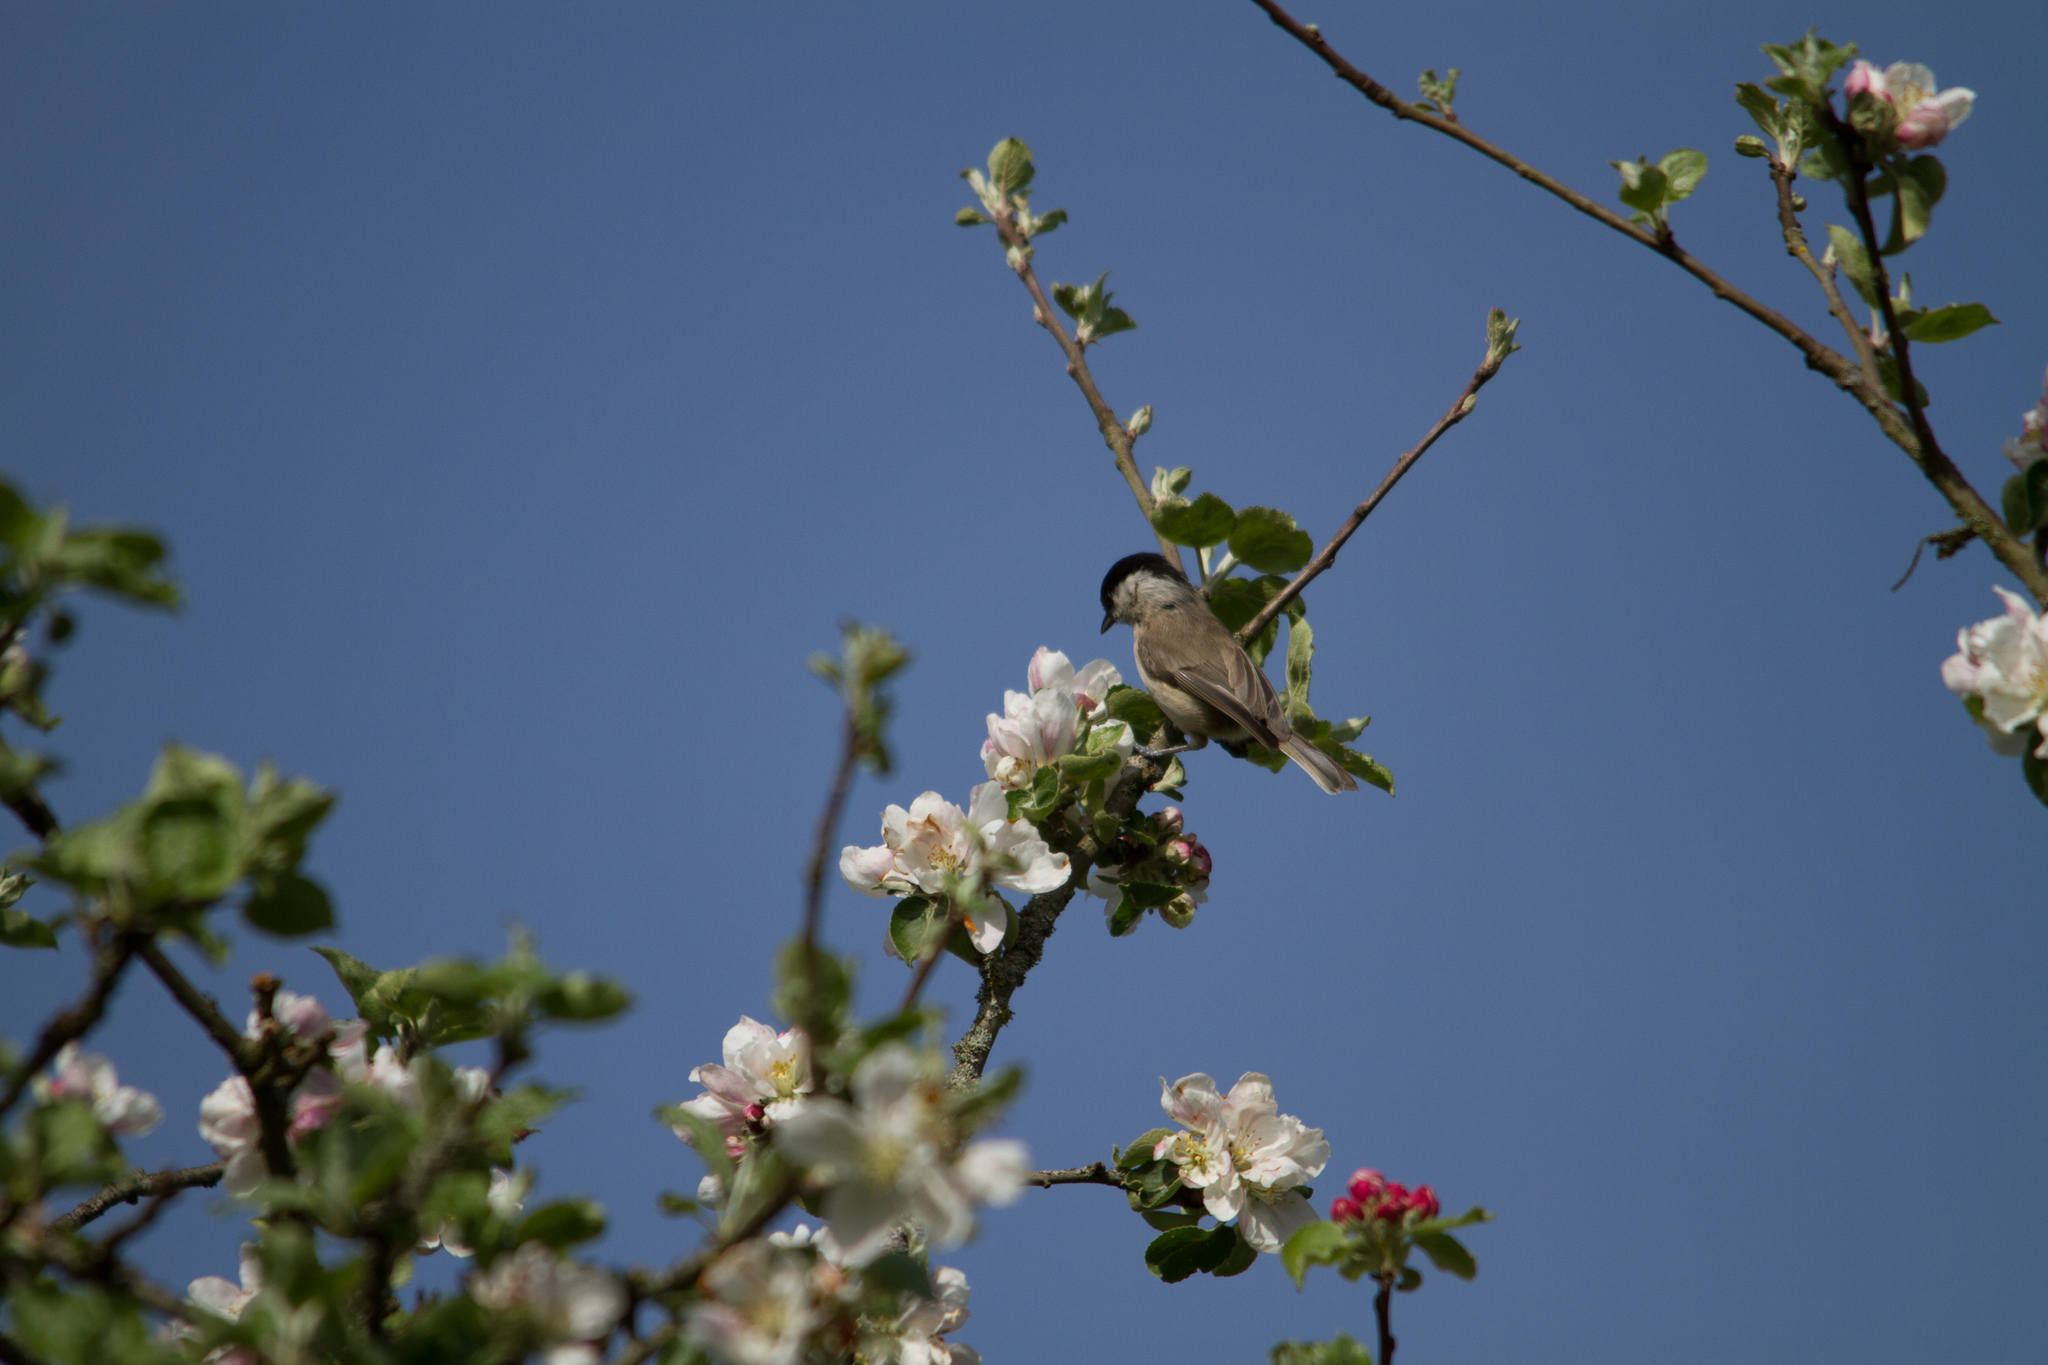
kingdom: Animalia
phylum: Chordata
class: Aves
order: Passeriformes
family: Paridae
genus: Poecile
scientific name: Poecile palustris
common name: Marsh tit
